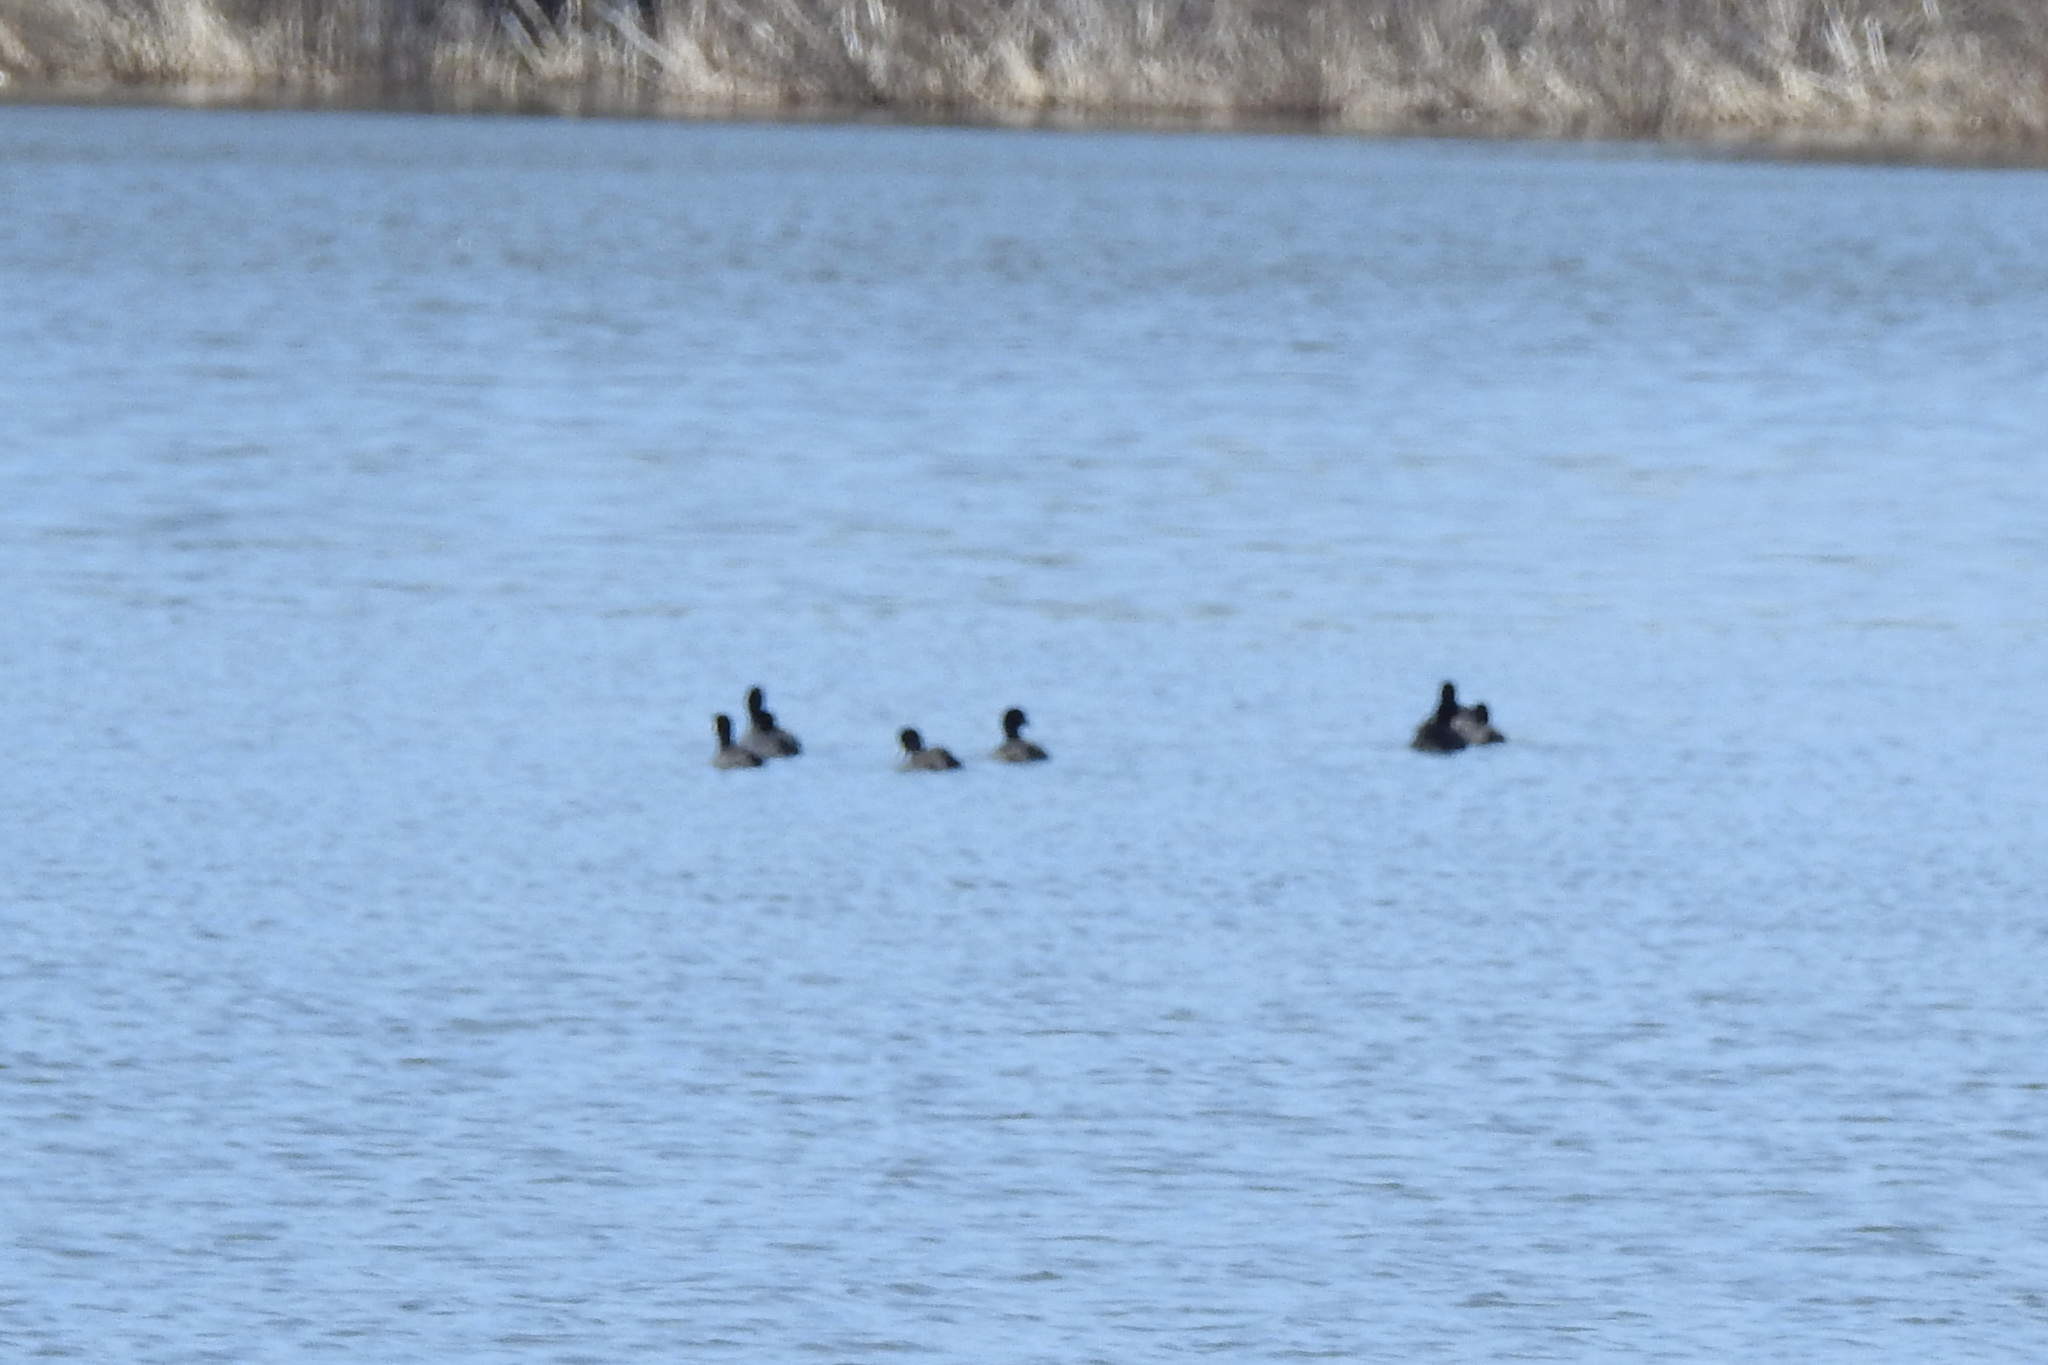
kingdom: Animalia
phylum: Chordata
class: Aves
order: Gruiformes
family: Rallidae
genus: Fulica
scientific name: Fulica americana
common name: American coot
